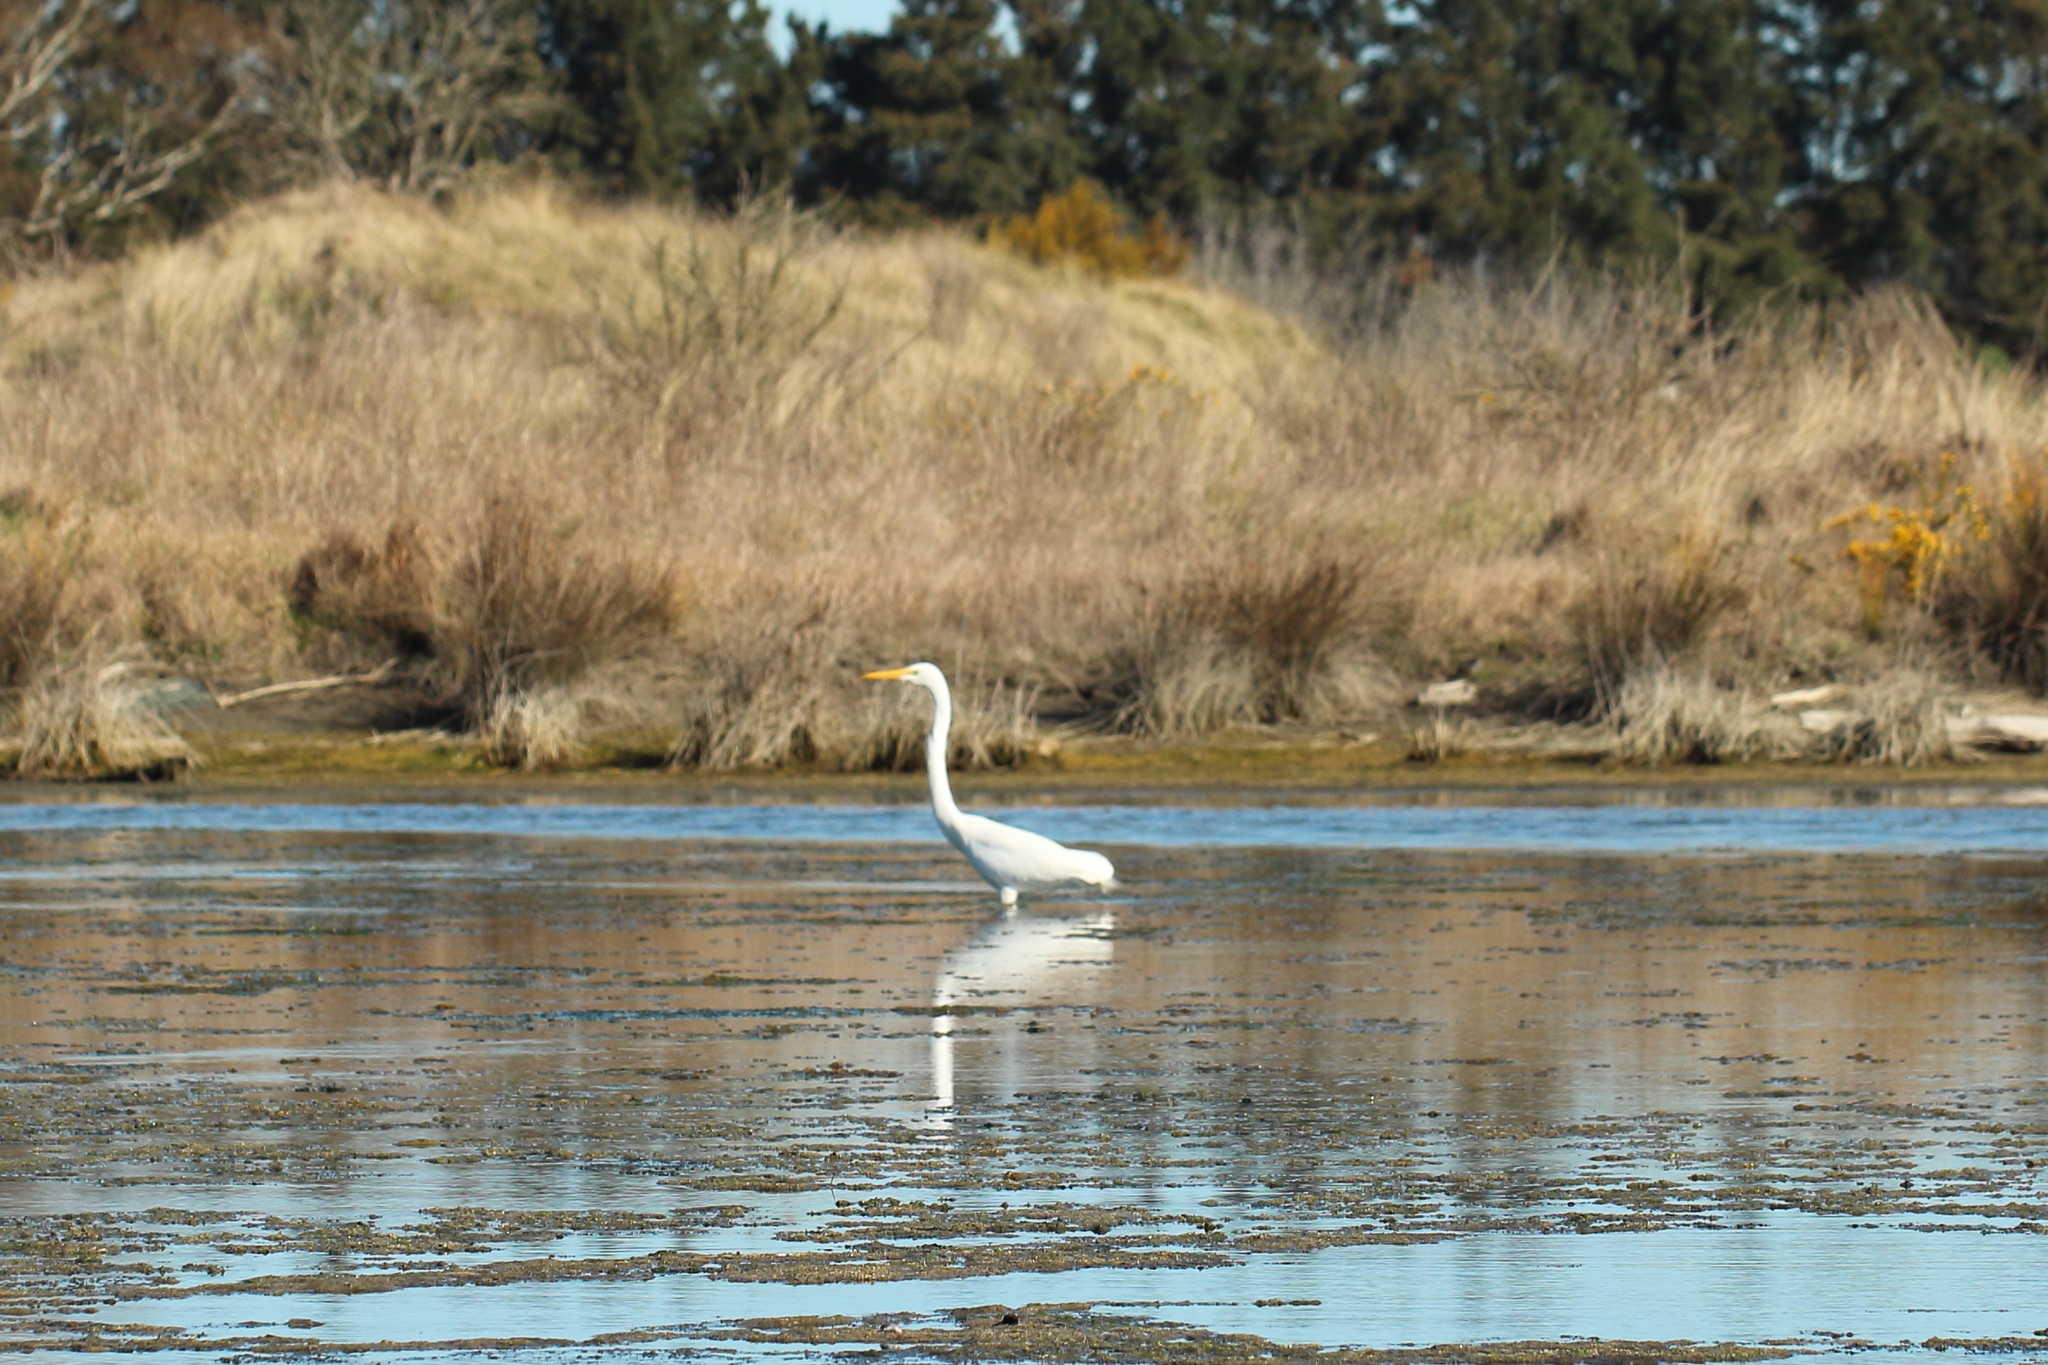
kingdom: Animalia
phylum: Chordata
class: Aves
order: Pelecaniformes
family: Ardeidae
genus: Ardea
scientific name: Ardea modesta
